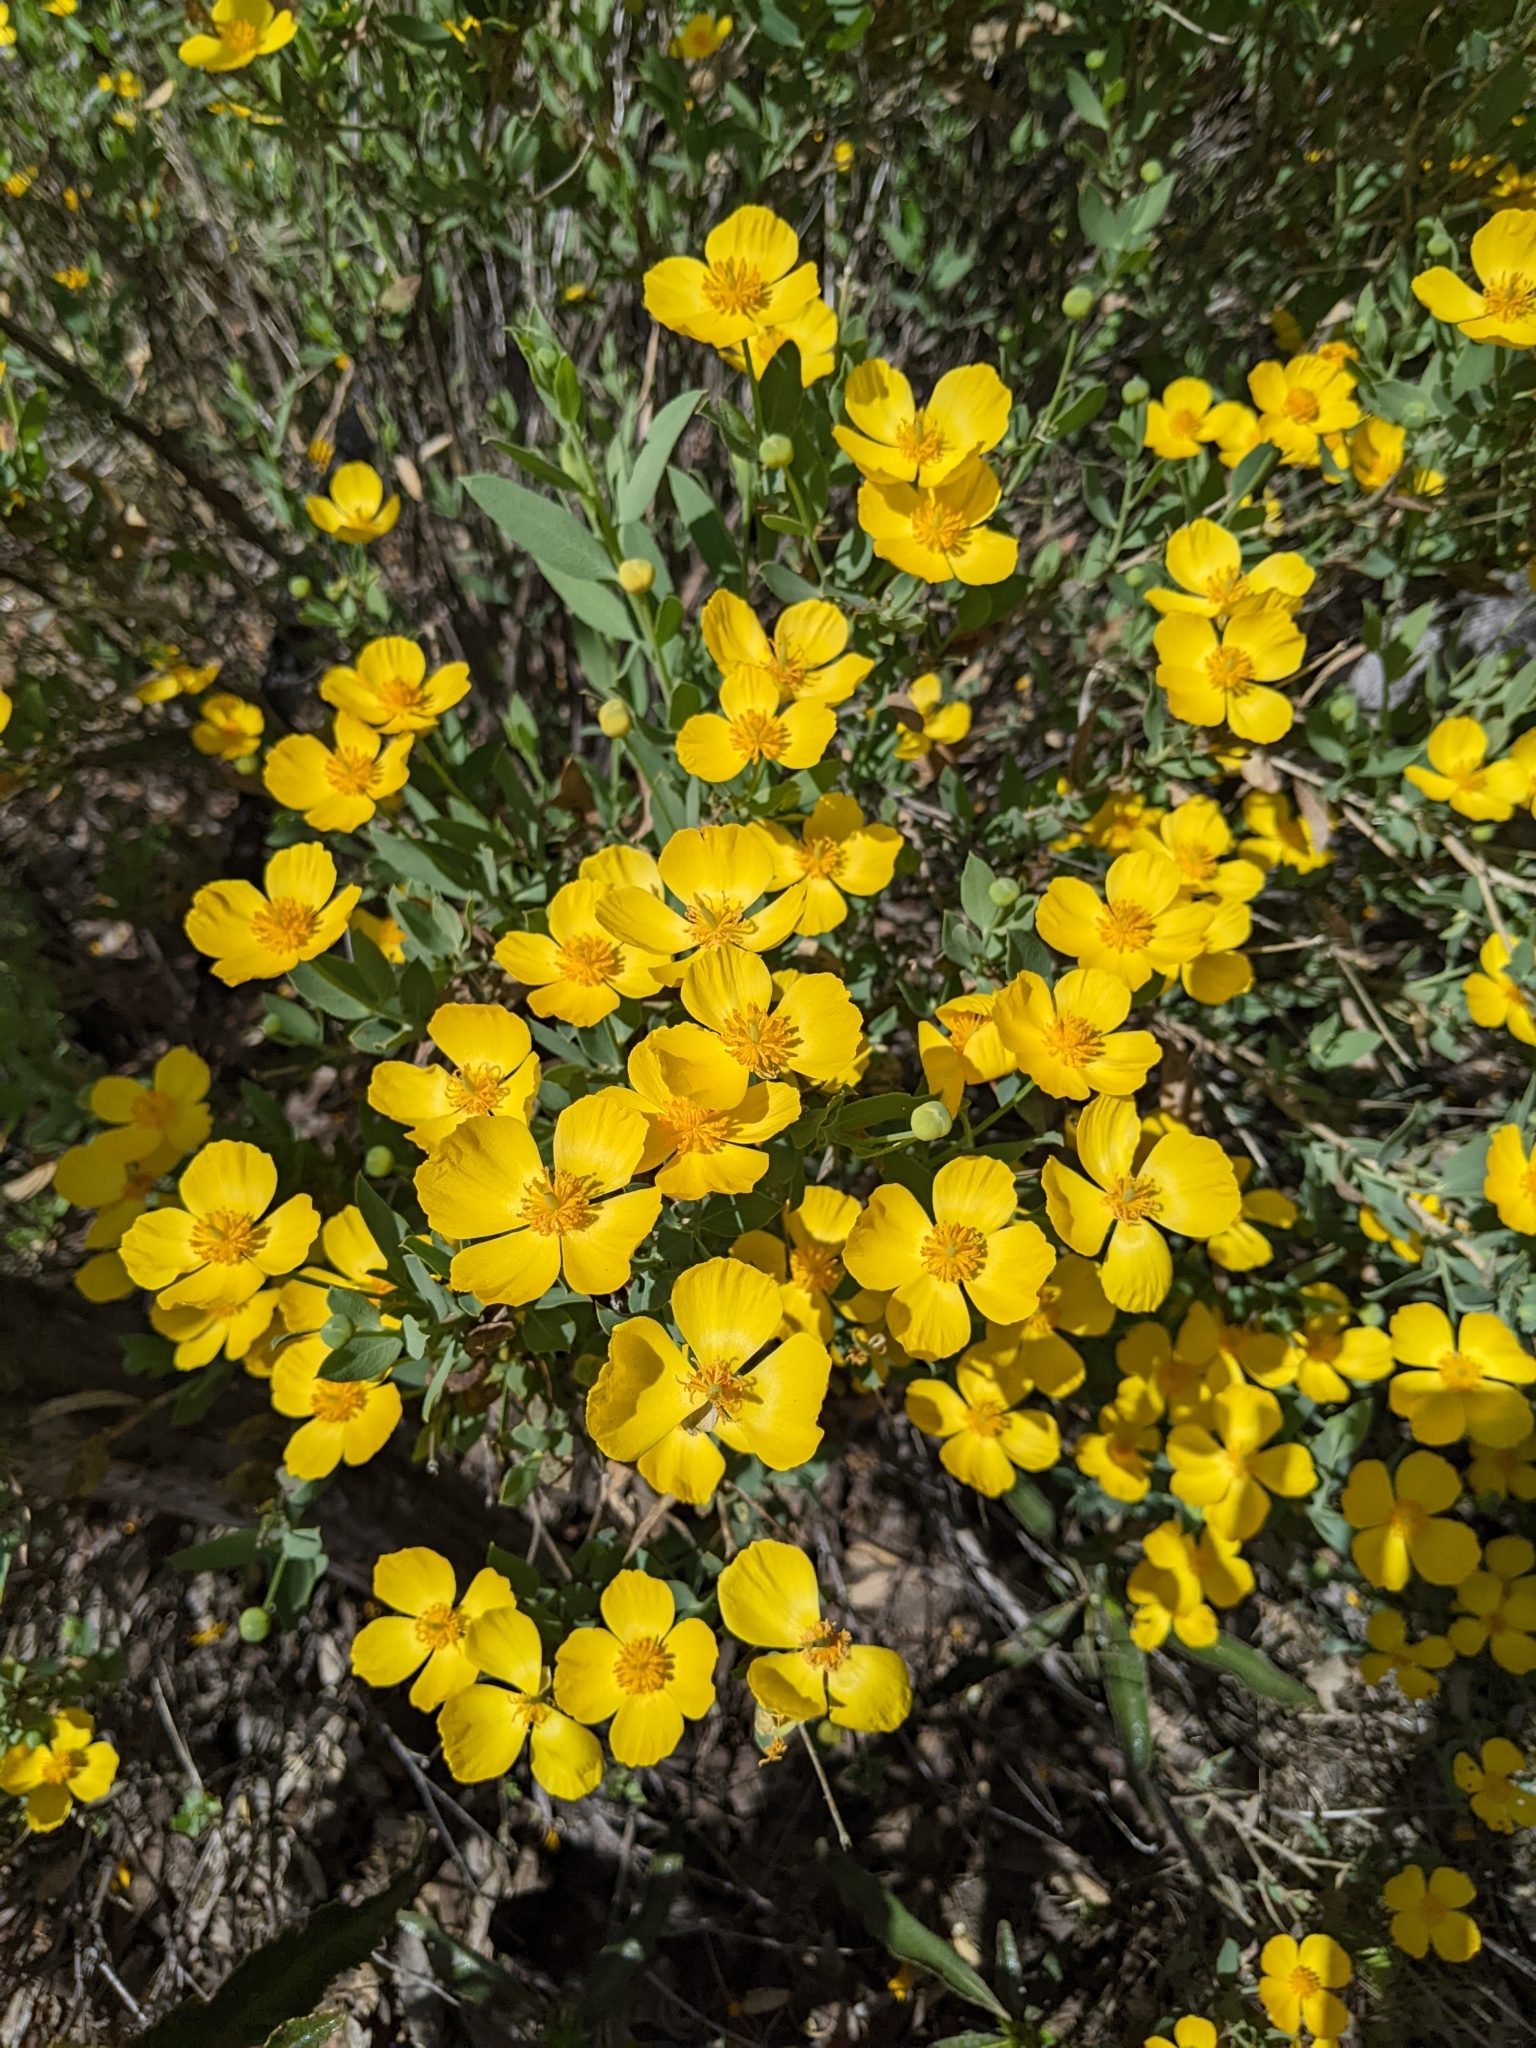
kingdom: Plantae
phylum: Tracheophyta
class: Magnoliopsida
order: Ranunculales
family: Papaveraceae
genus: Dendromecon
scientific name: Dendromecon rigida
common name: Tree poppy
